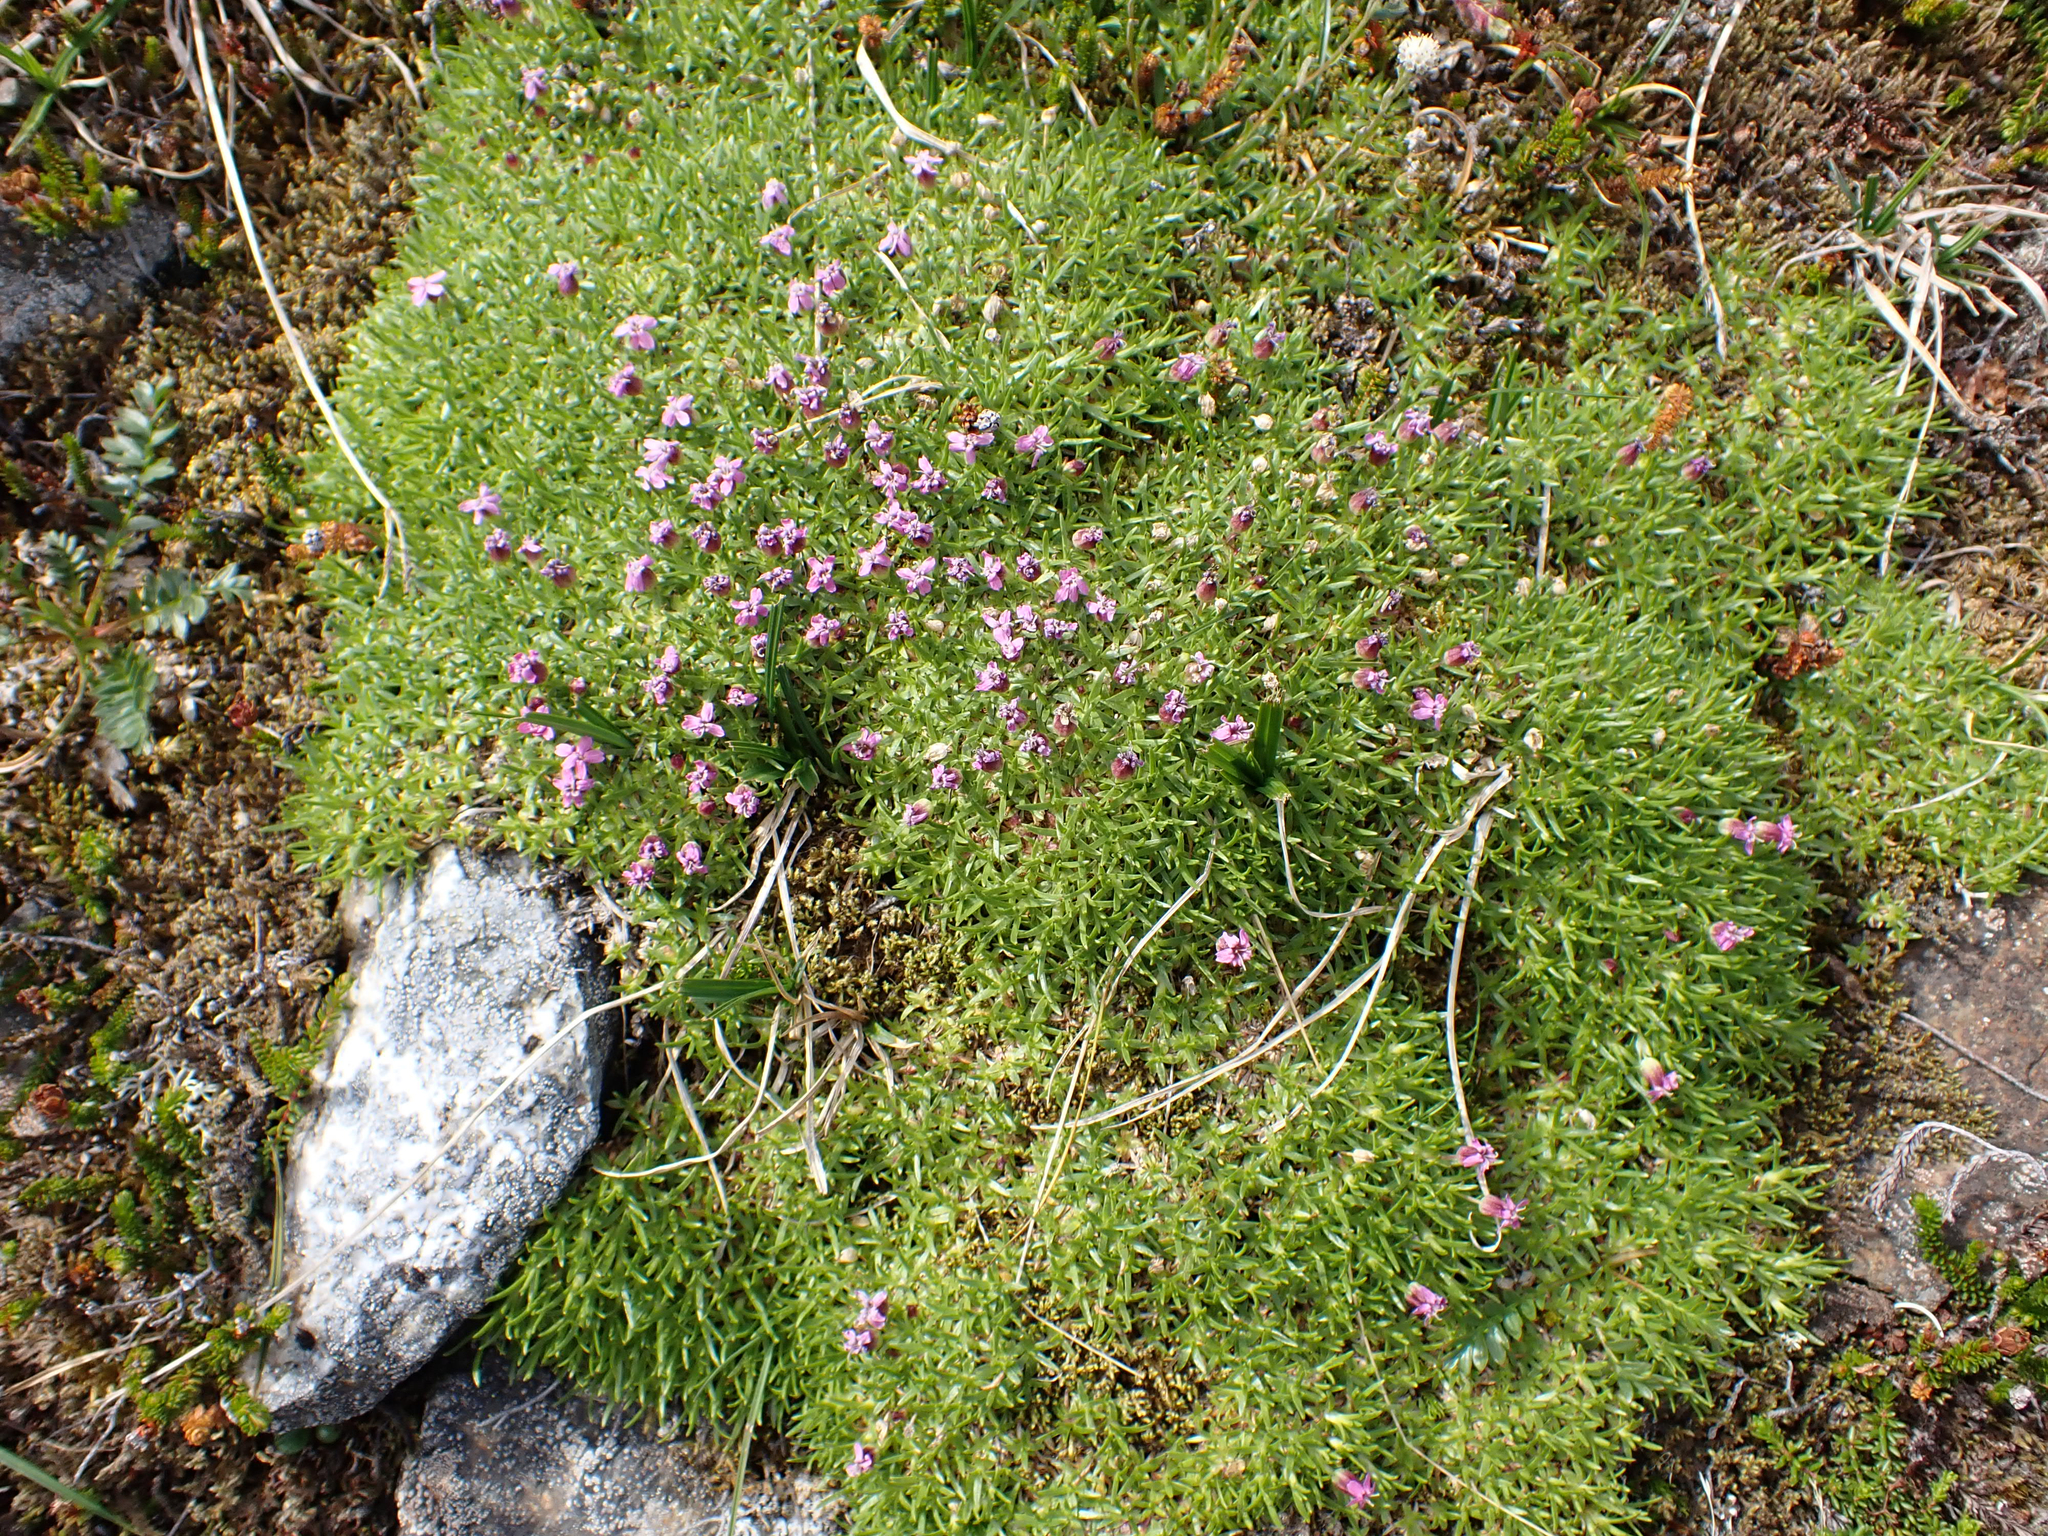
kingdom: Plantae
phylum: Tracheophyta
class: Magnoliopsida
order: Caryophyllales
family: Caryophyllaceae
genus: Silene
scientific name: Silene acaulis
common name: Moss campion
